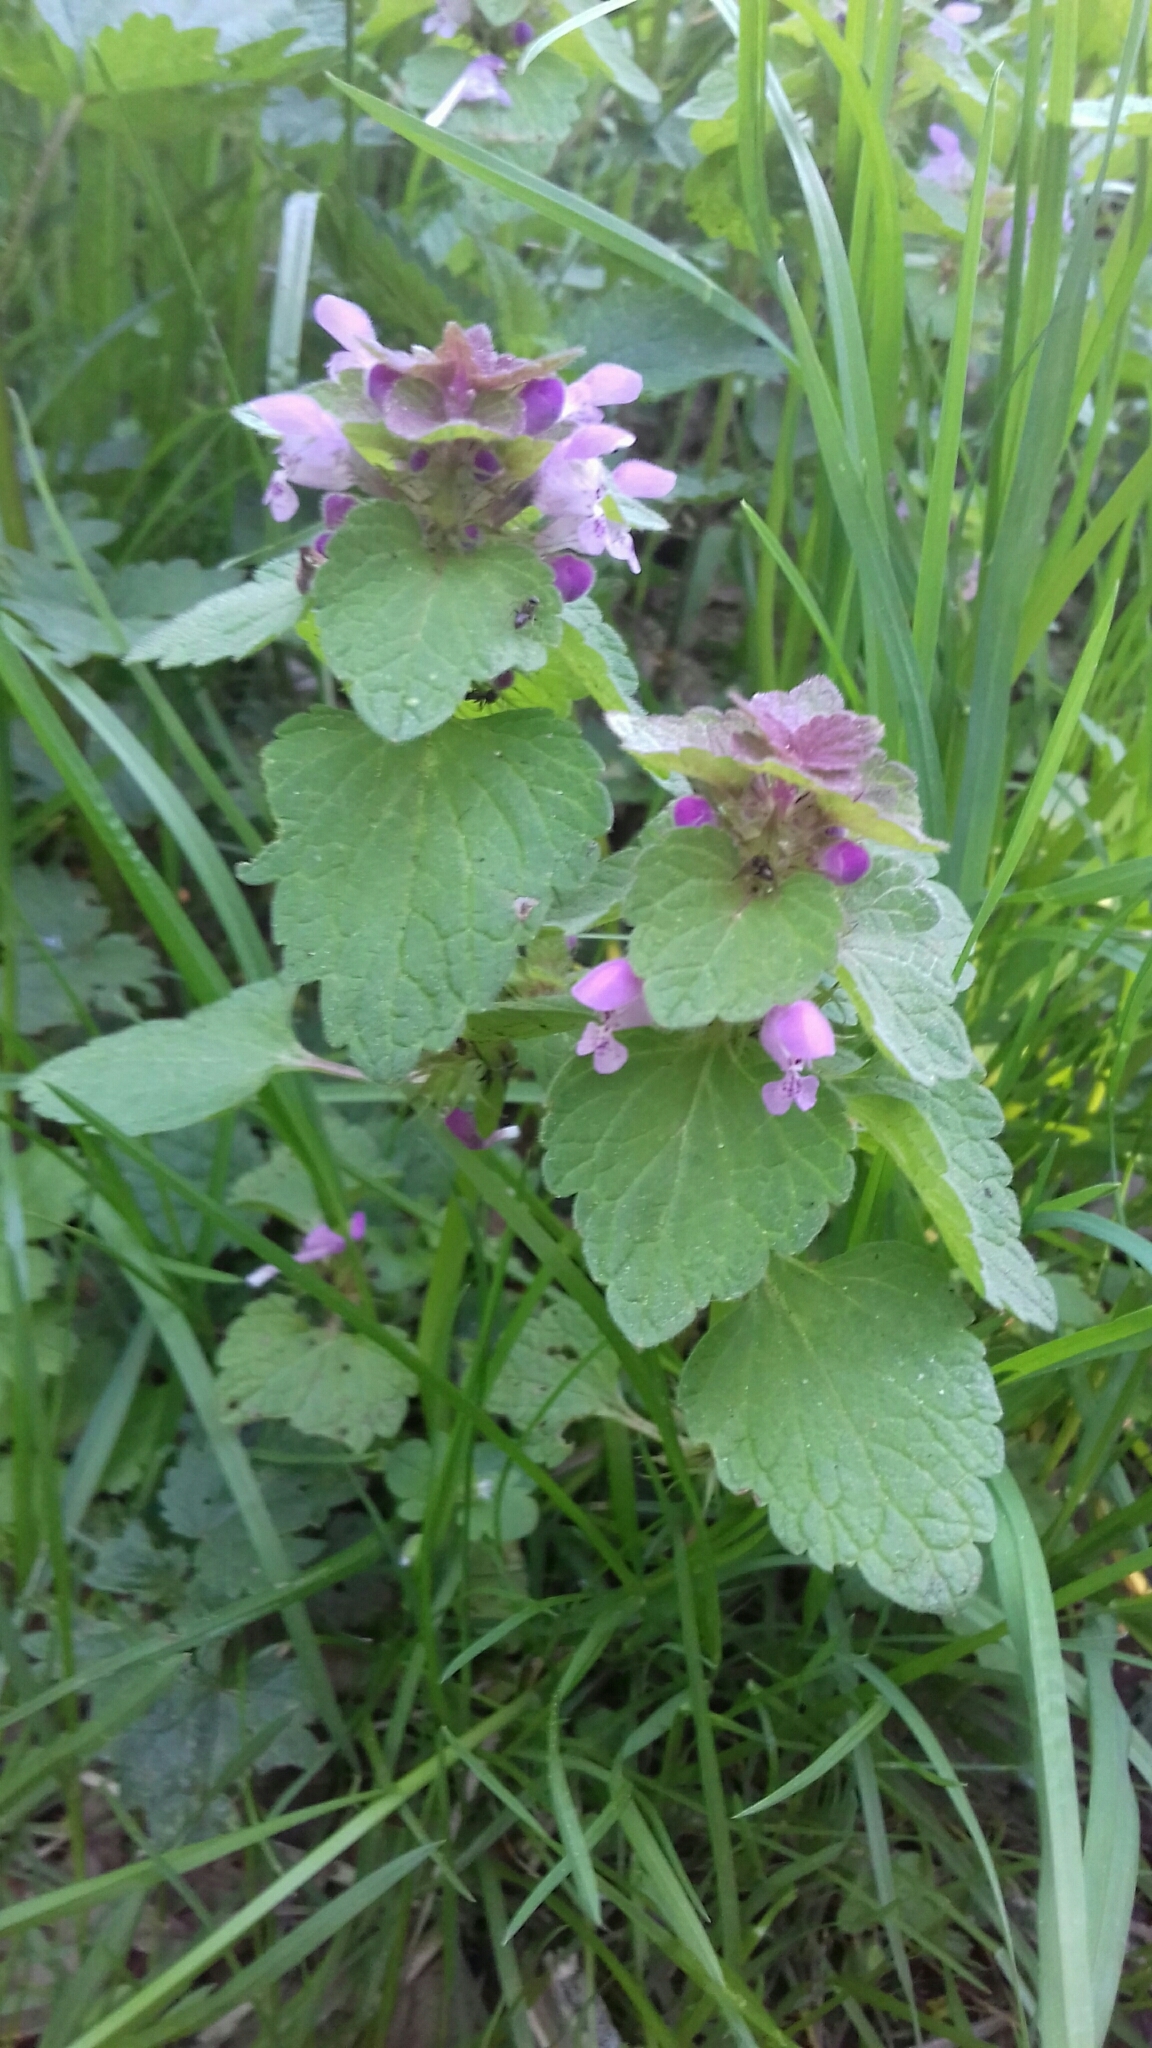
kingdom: Plantae
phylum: Tracheophyta
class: Magnoliopsida
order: Lamiales
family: Lamiaceae
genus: Lamium
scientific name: Lamium purpureum
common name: Red dead-nettle
